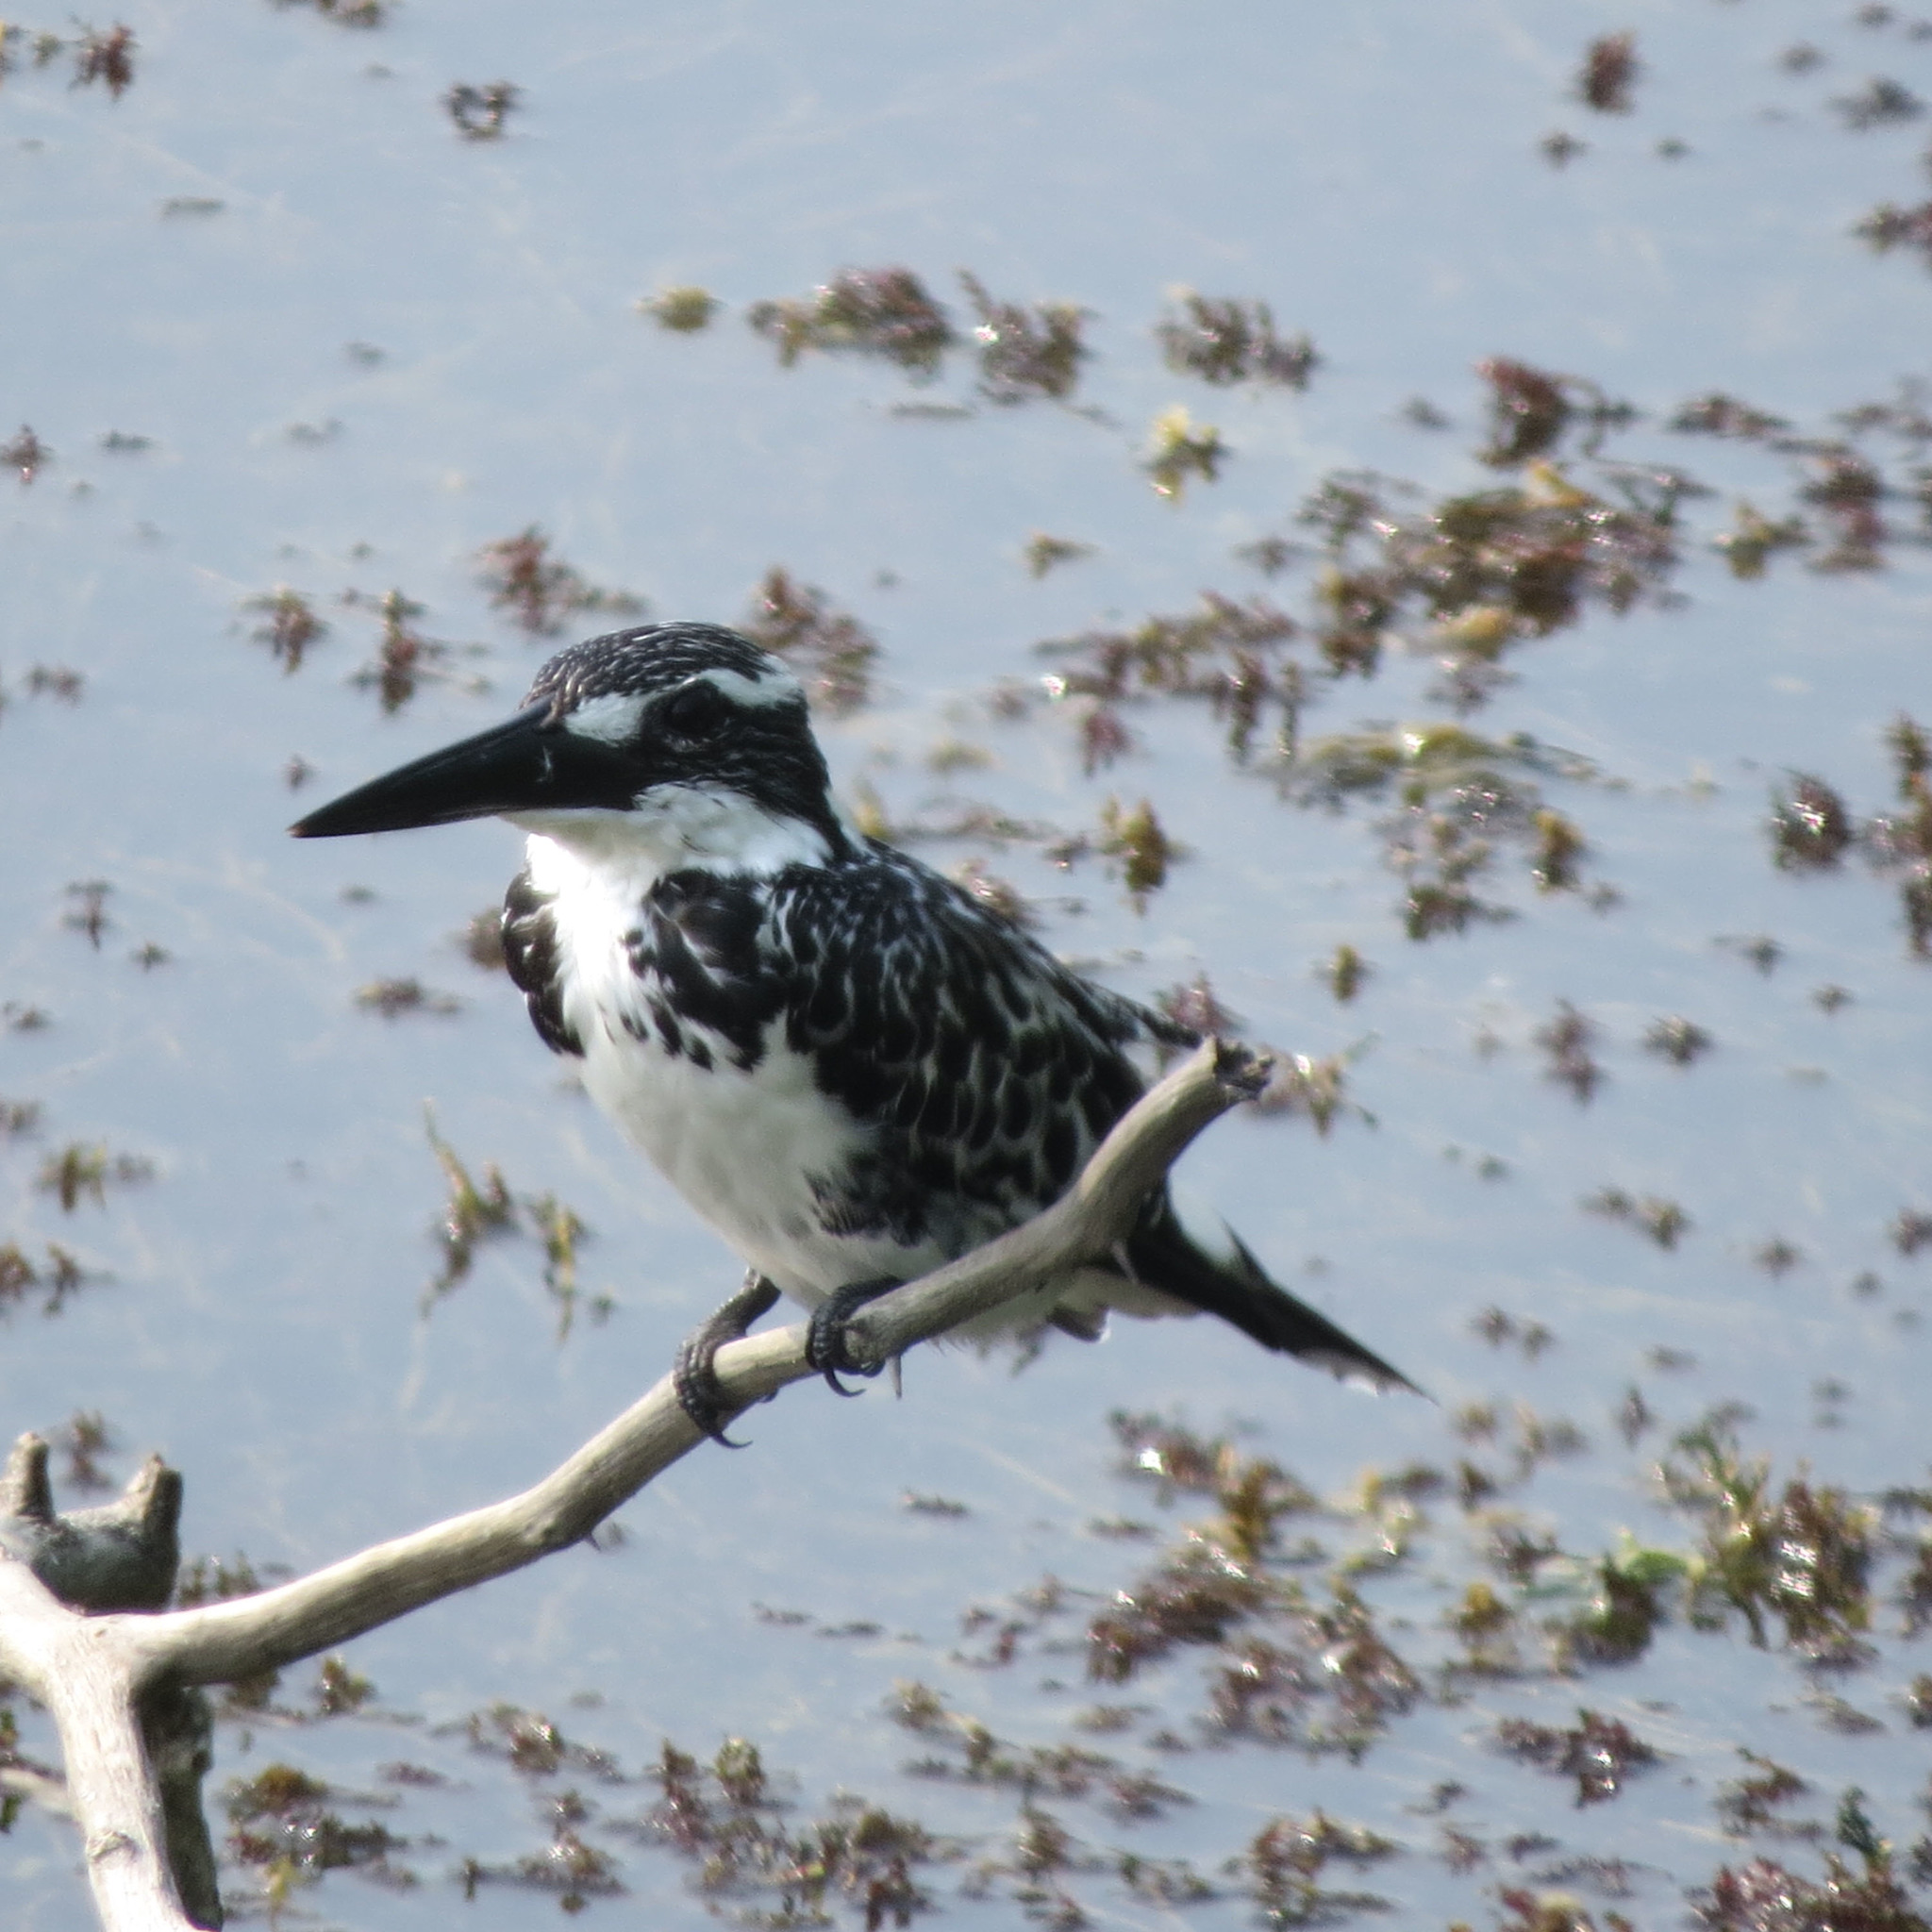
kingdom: Animalia
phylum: Chordata
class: Aves
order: Coraciiformes
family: Alcedinidae
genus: Ceryle
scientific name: Ceryle rudis
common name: Pied kingfisher
